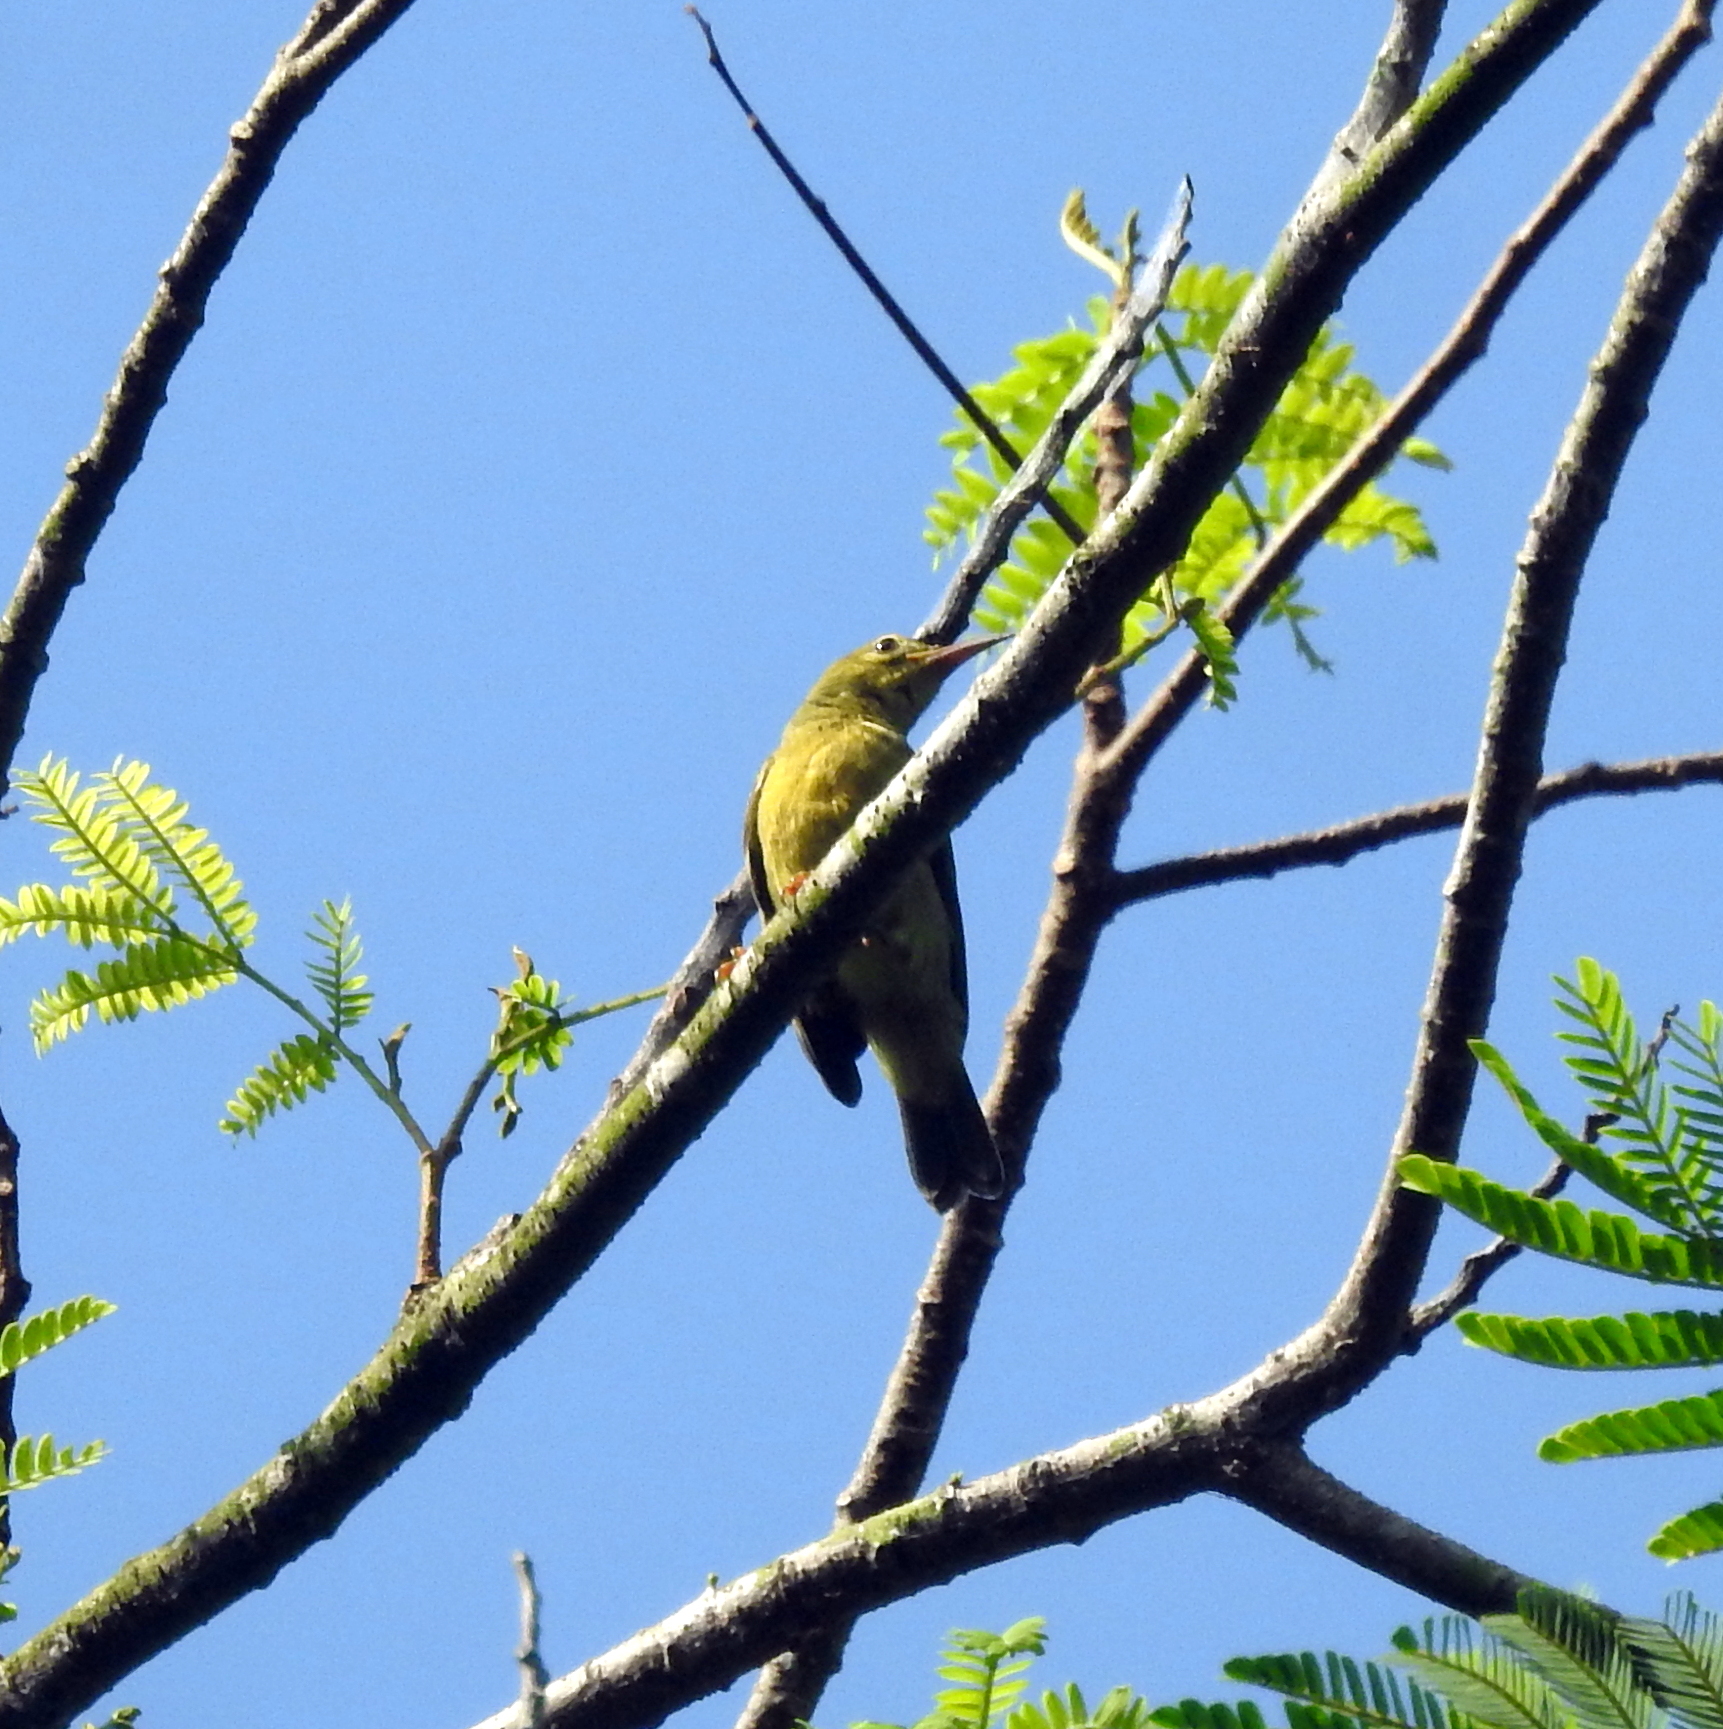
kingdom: Animalia
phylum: Chordata
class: Aves
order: Passeriformes
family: Nectariniidae
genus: Anthreptes
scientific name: Anthreptes malacensis
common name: Brown-throated sunbird
